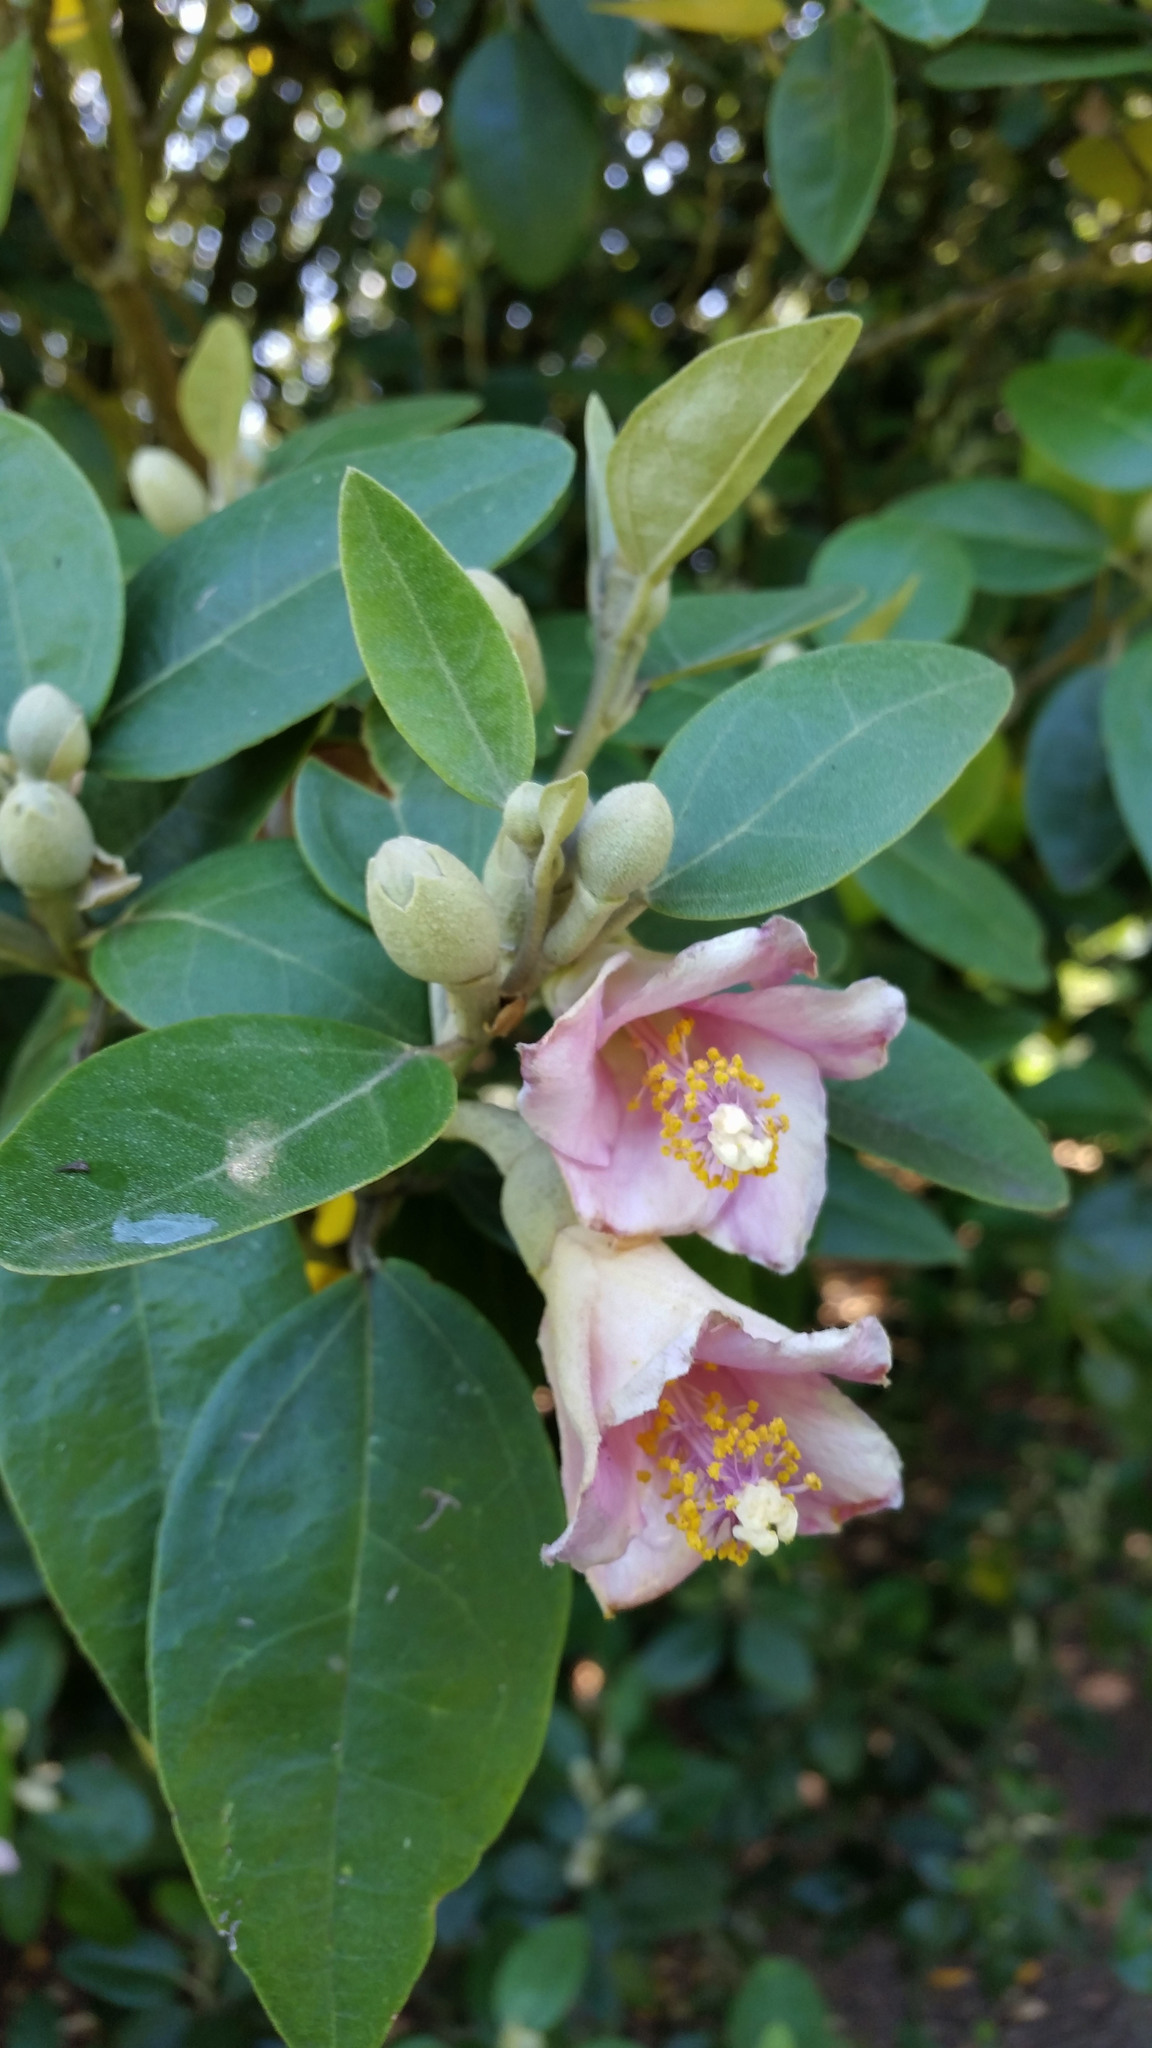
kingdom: Plantae
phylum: Tracheophyta
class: Magnoliopsida
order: Malvales
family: Malvaceae
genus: Lagunaria
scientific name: Lagunaria patersonia
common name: Cow itch tree
